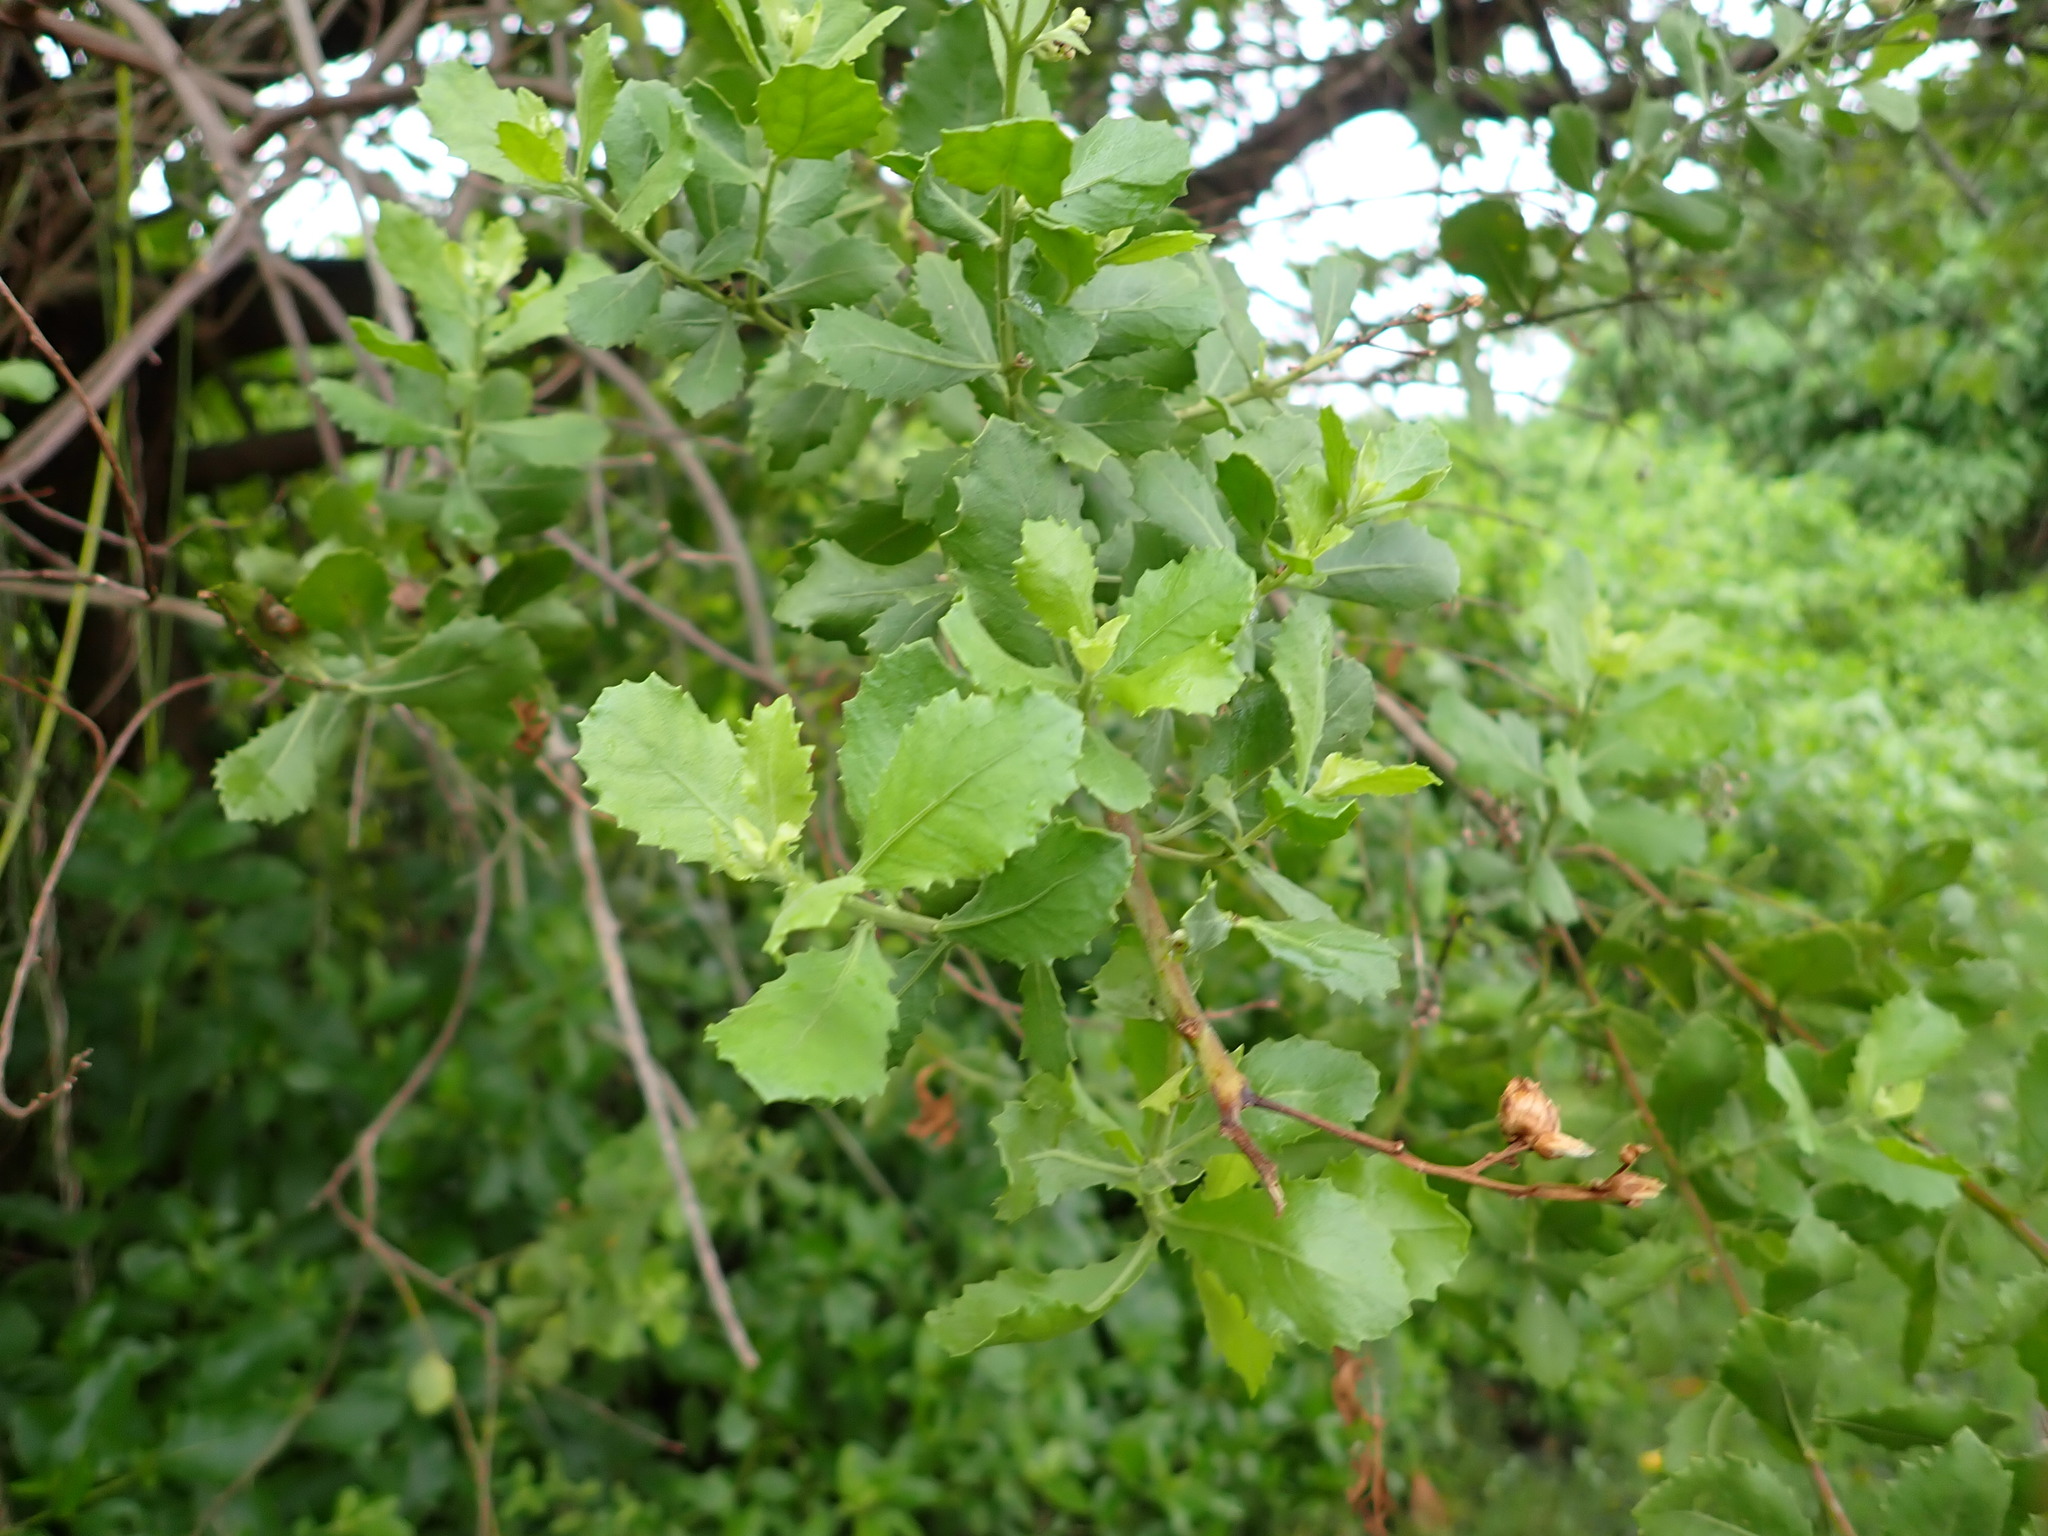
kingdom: Plantae
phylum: Tracheophyta
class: Magnoliopsida
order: Asterales
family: Asteraceae
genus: Pluchea
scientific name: Pluchea indica
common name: Indian fleabane
